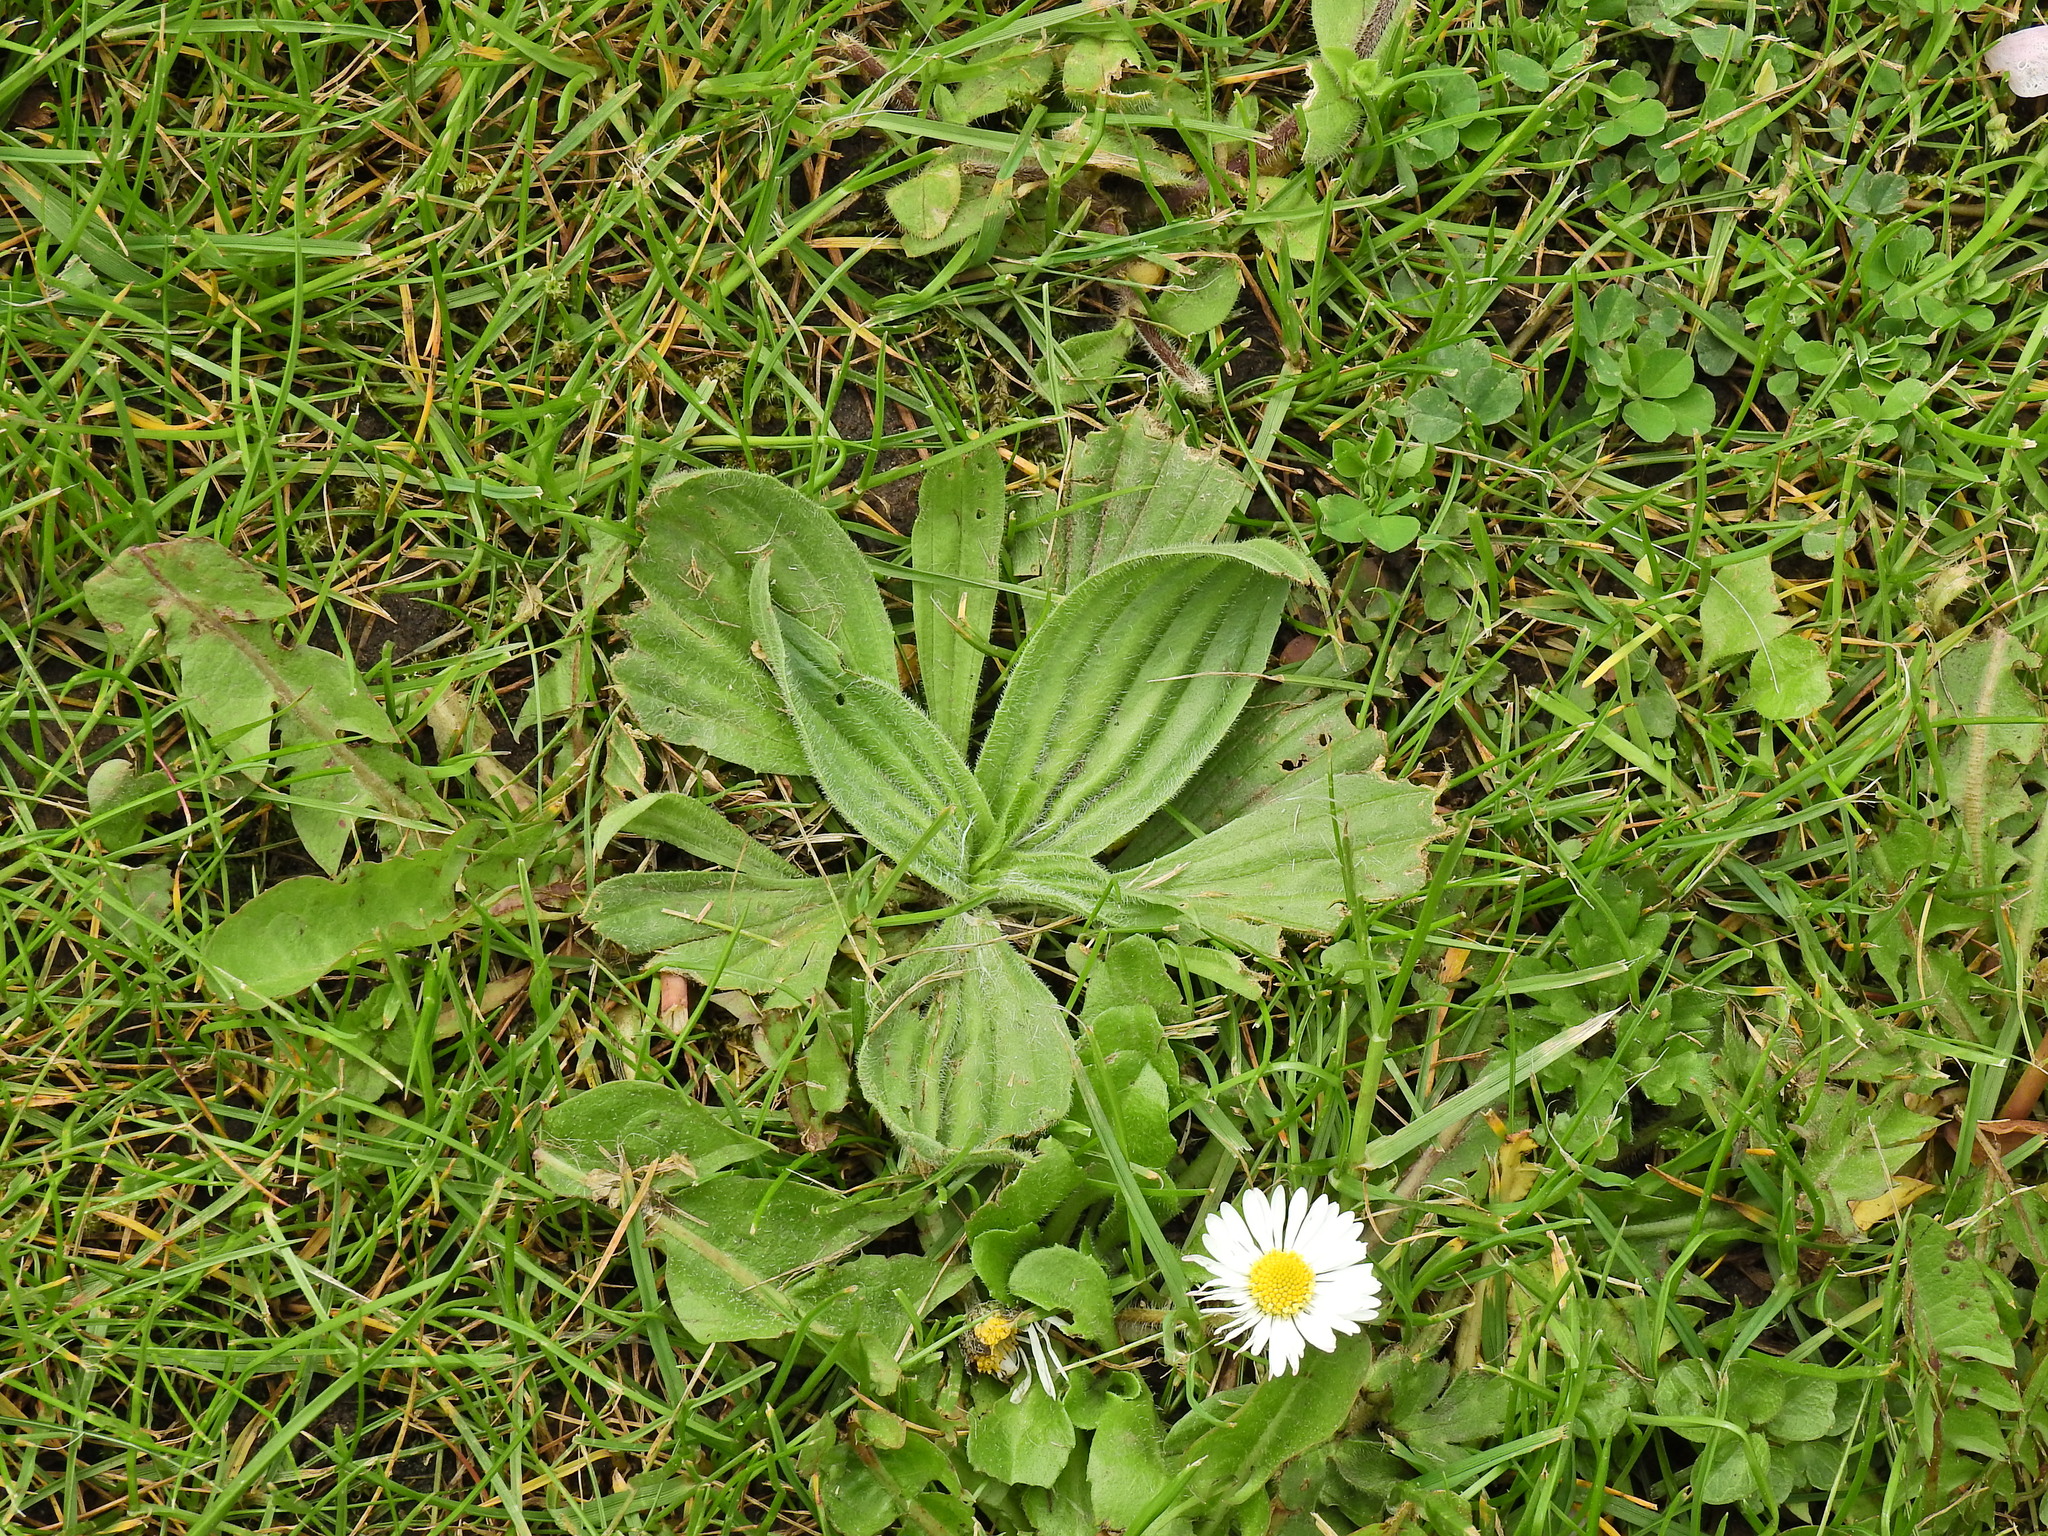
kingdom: Plantae
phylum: Tracheophyta
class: Magnoliopsida
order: Lamiales
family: Plantaginaceae
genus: Plantago
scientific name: Plantago media
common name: Hoary plantain
